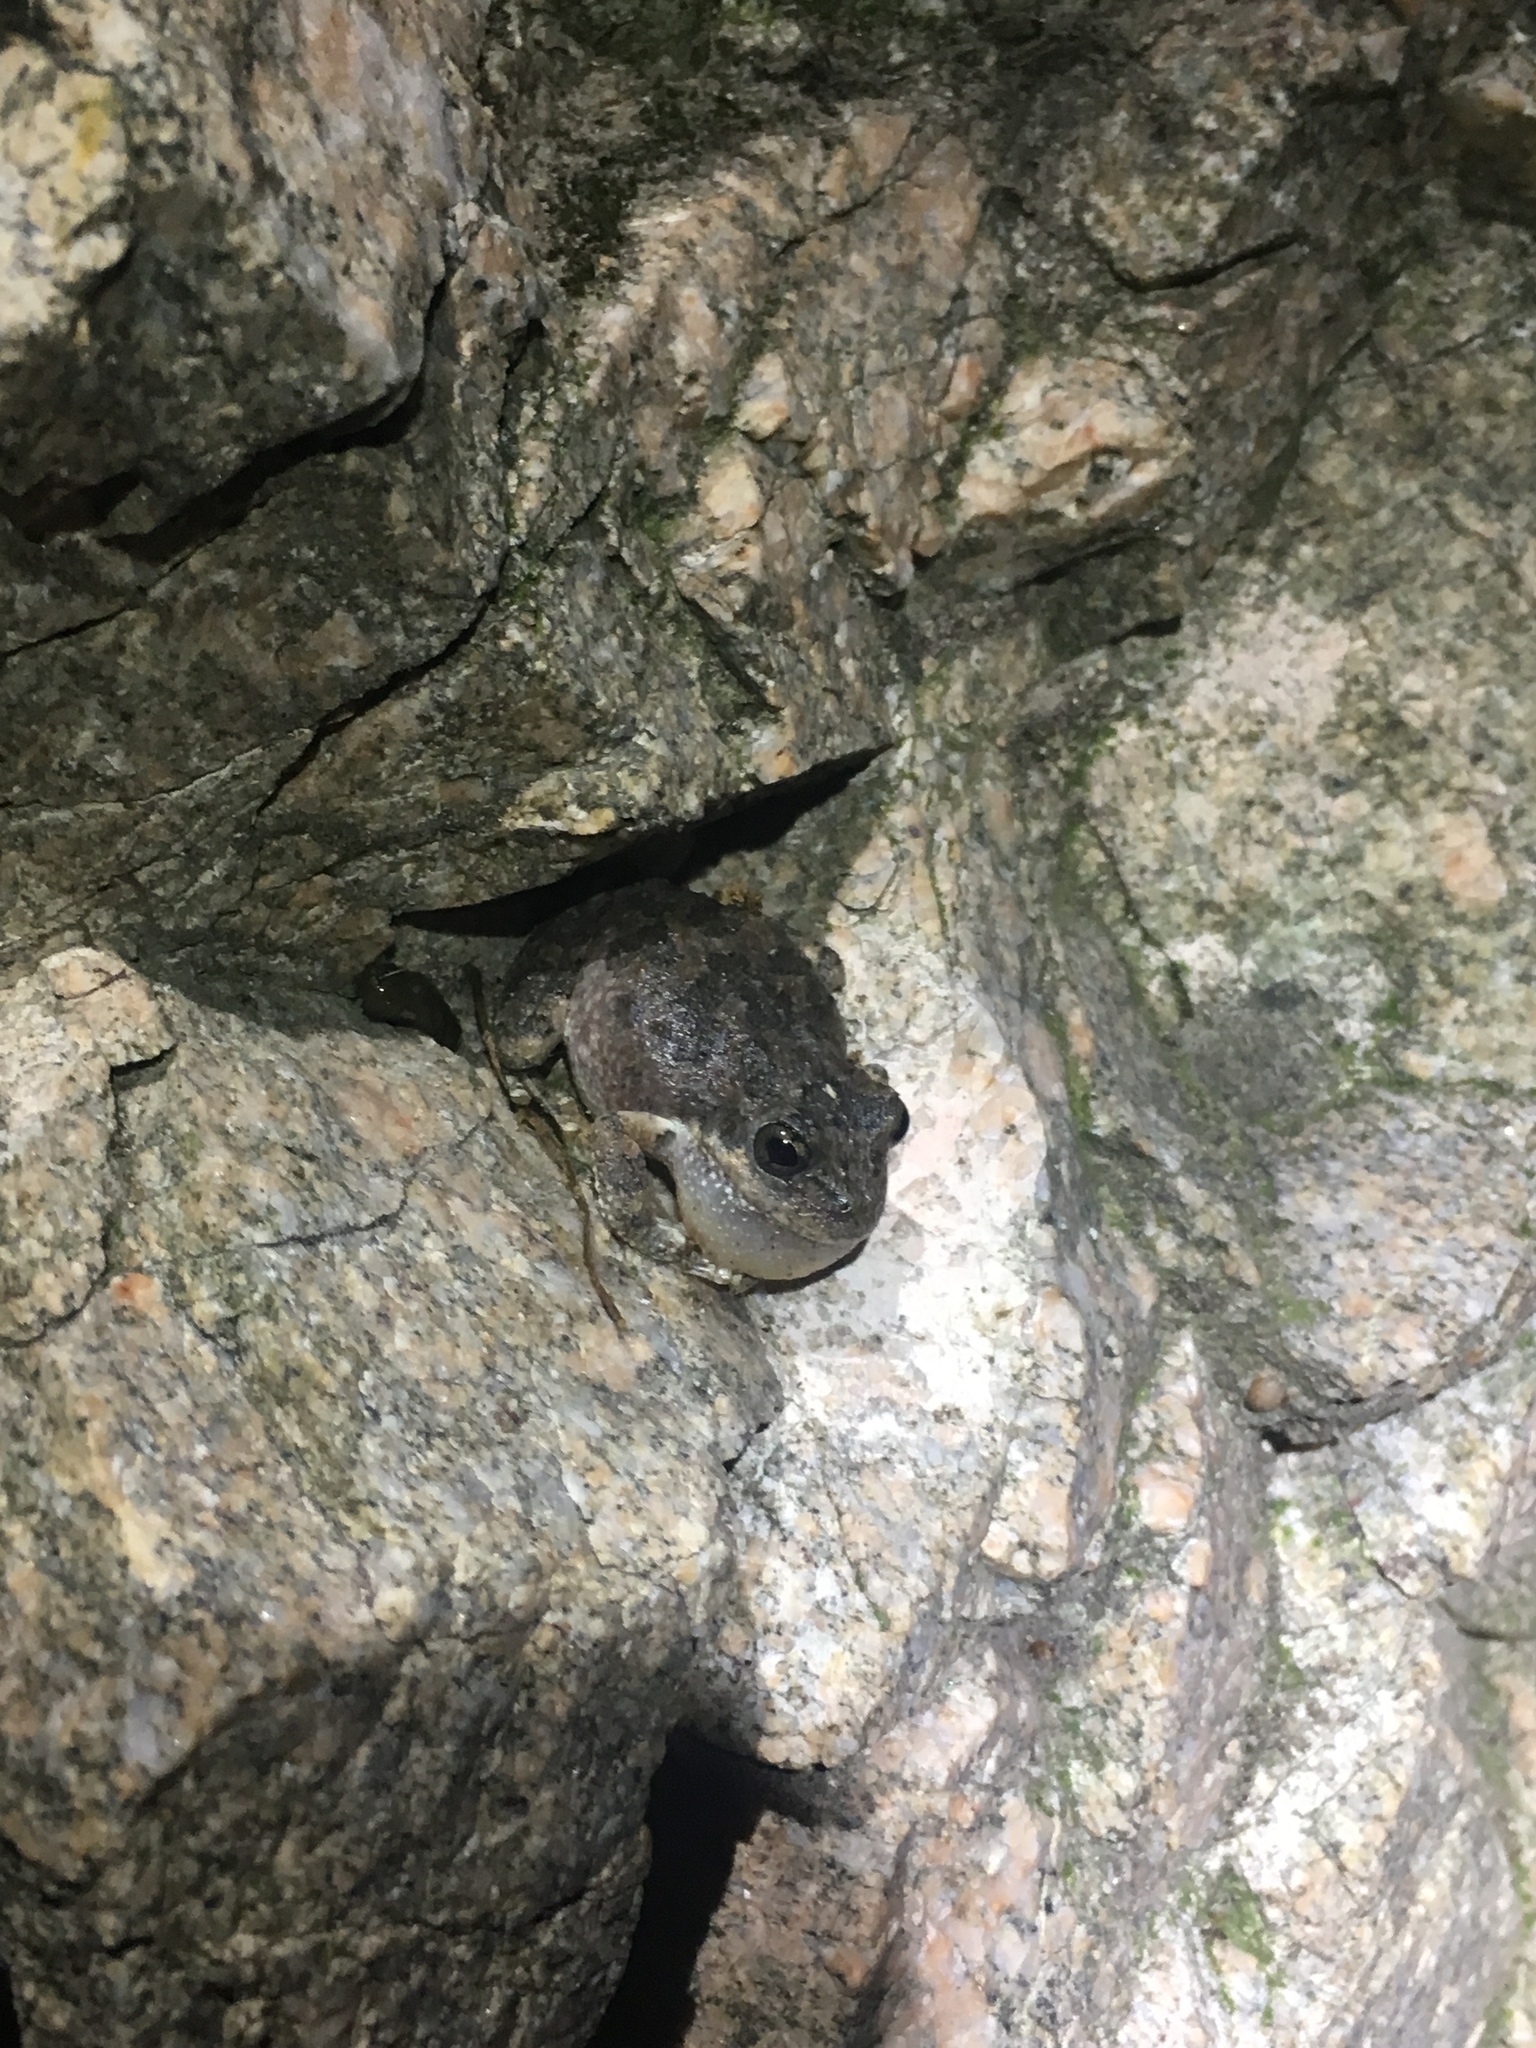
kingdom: Animalia
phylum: Chordata
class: Amphibia
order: Anura
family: Hylidae
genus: Pseudacris
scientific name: Pseudacris cadaverina
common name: California chorus frog
